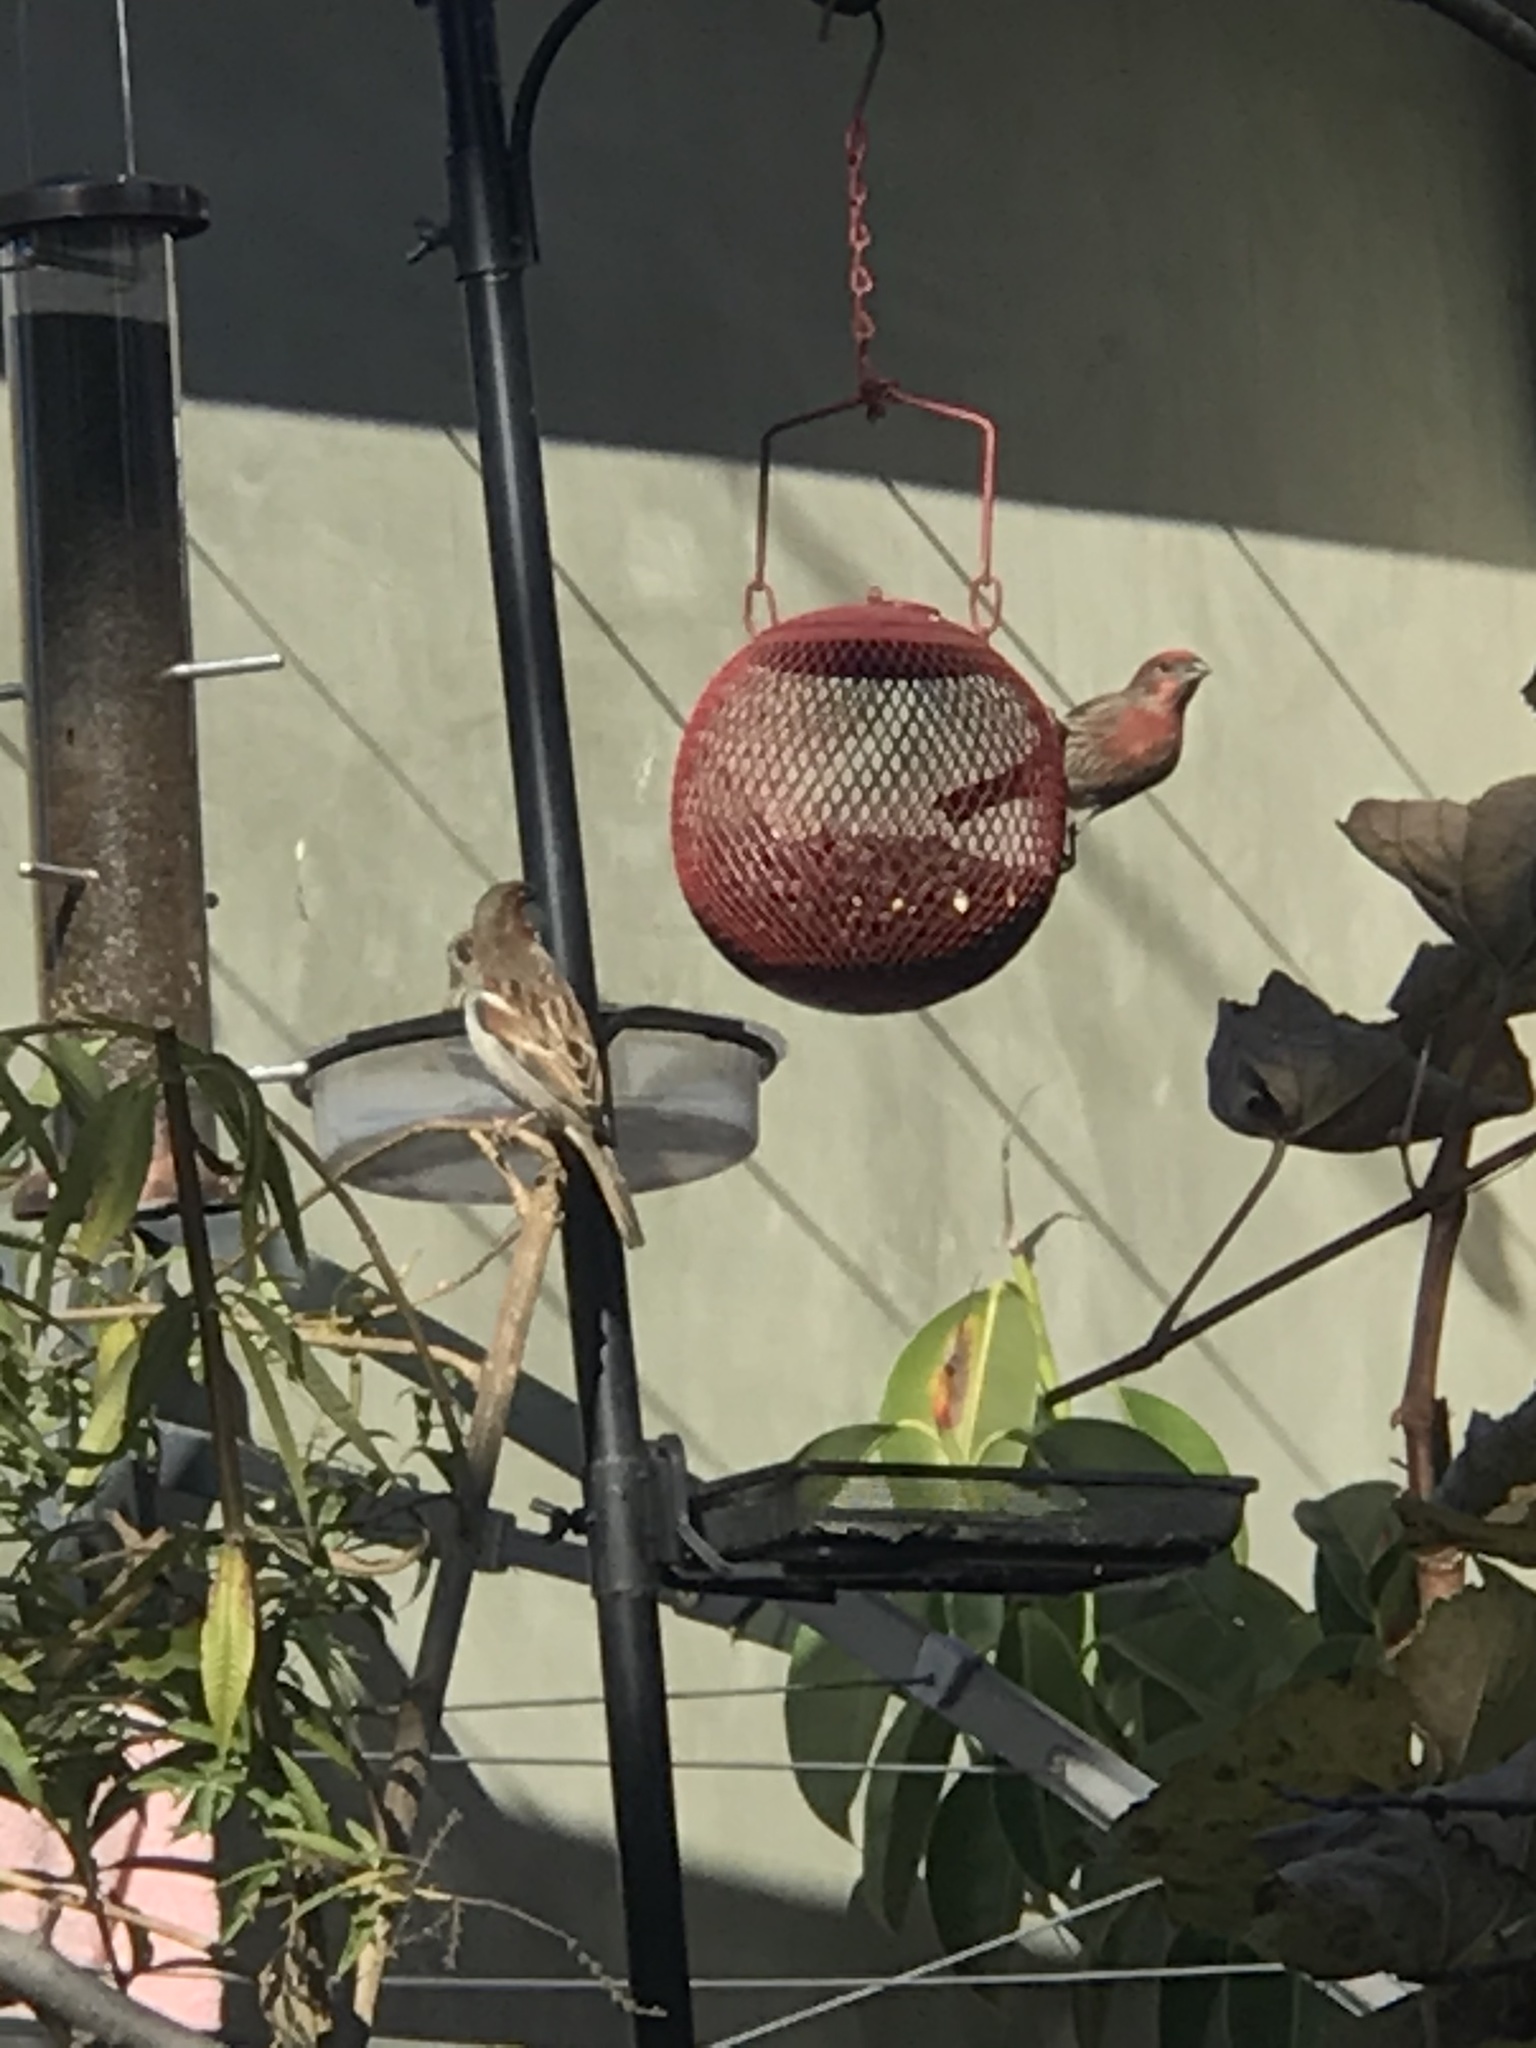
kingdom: Animalia
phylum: Chordata
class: Aves
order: Passeriformes
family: Fringillidae
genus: Haemorhous
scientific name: Haemorhous mexicanus
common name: House finch
